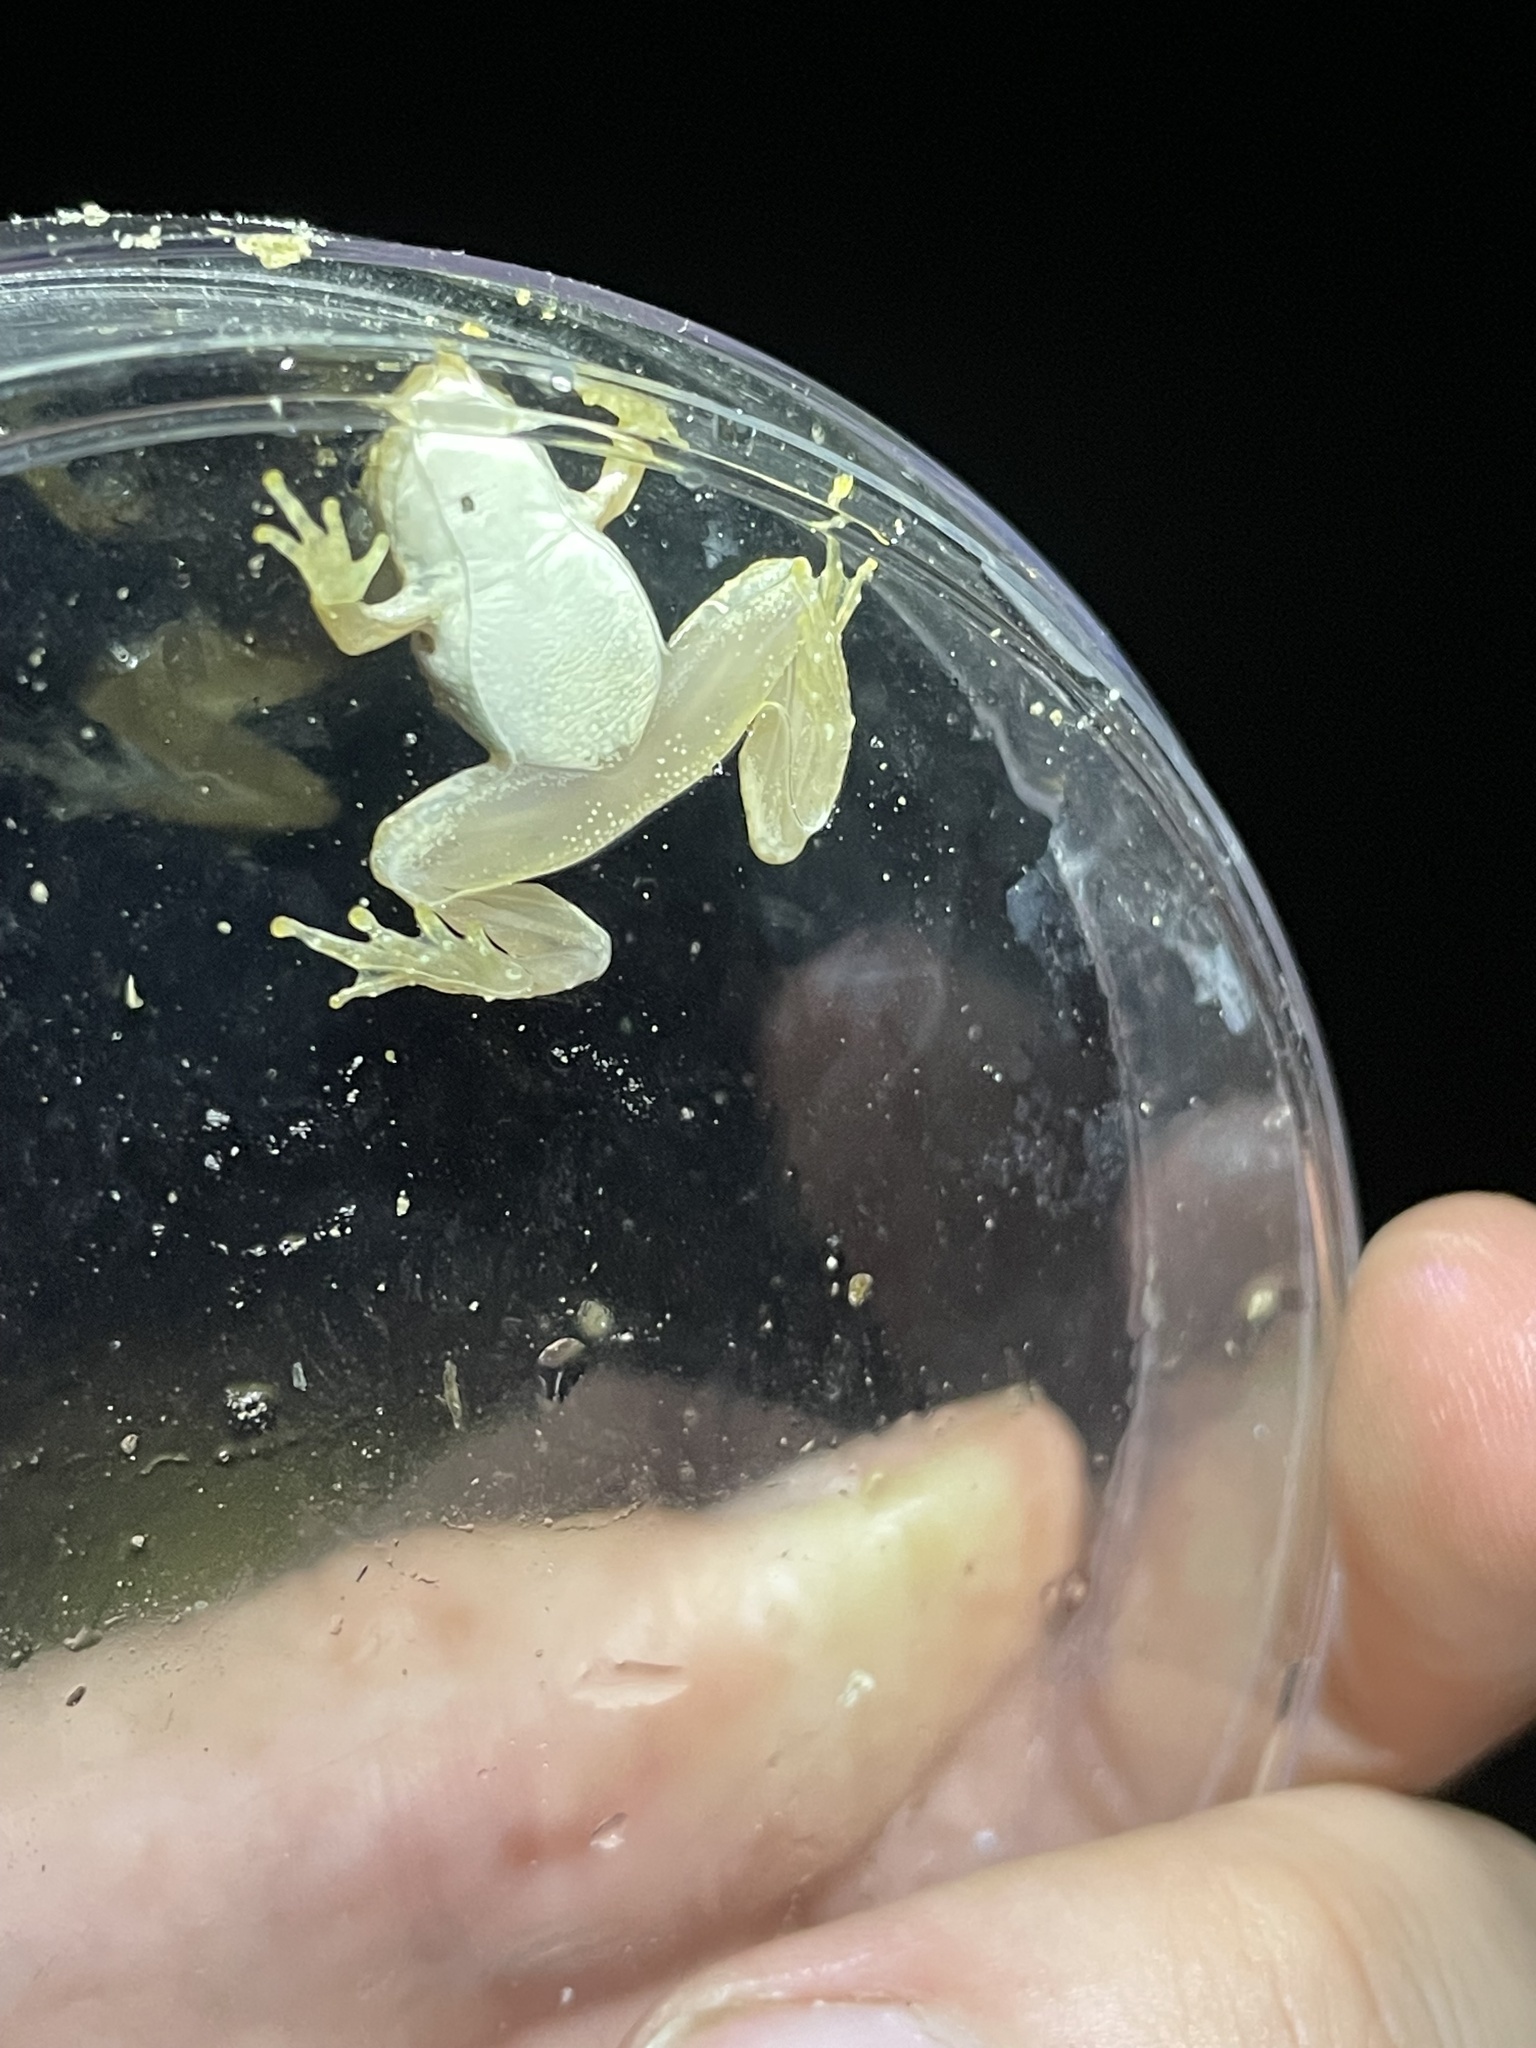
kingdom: Animalia
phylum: Chordata
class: Amphibia
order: Anura
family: Hylidae
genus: Acris
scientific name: Acris blanchardi
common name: Blanchard's cricket frog
